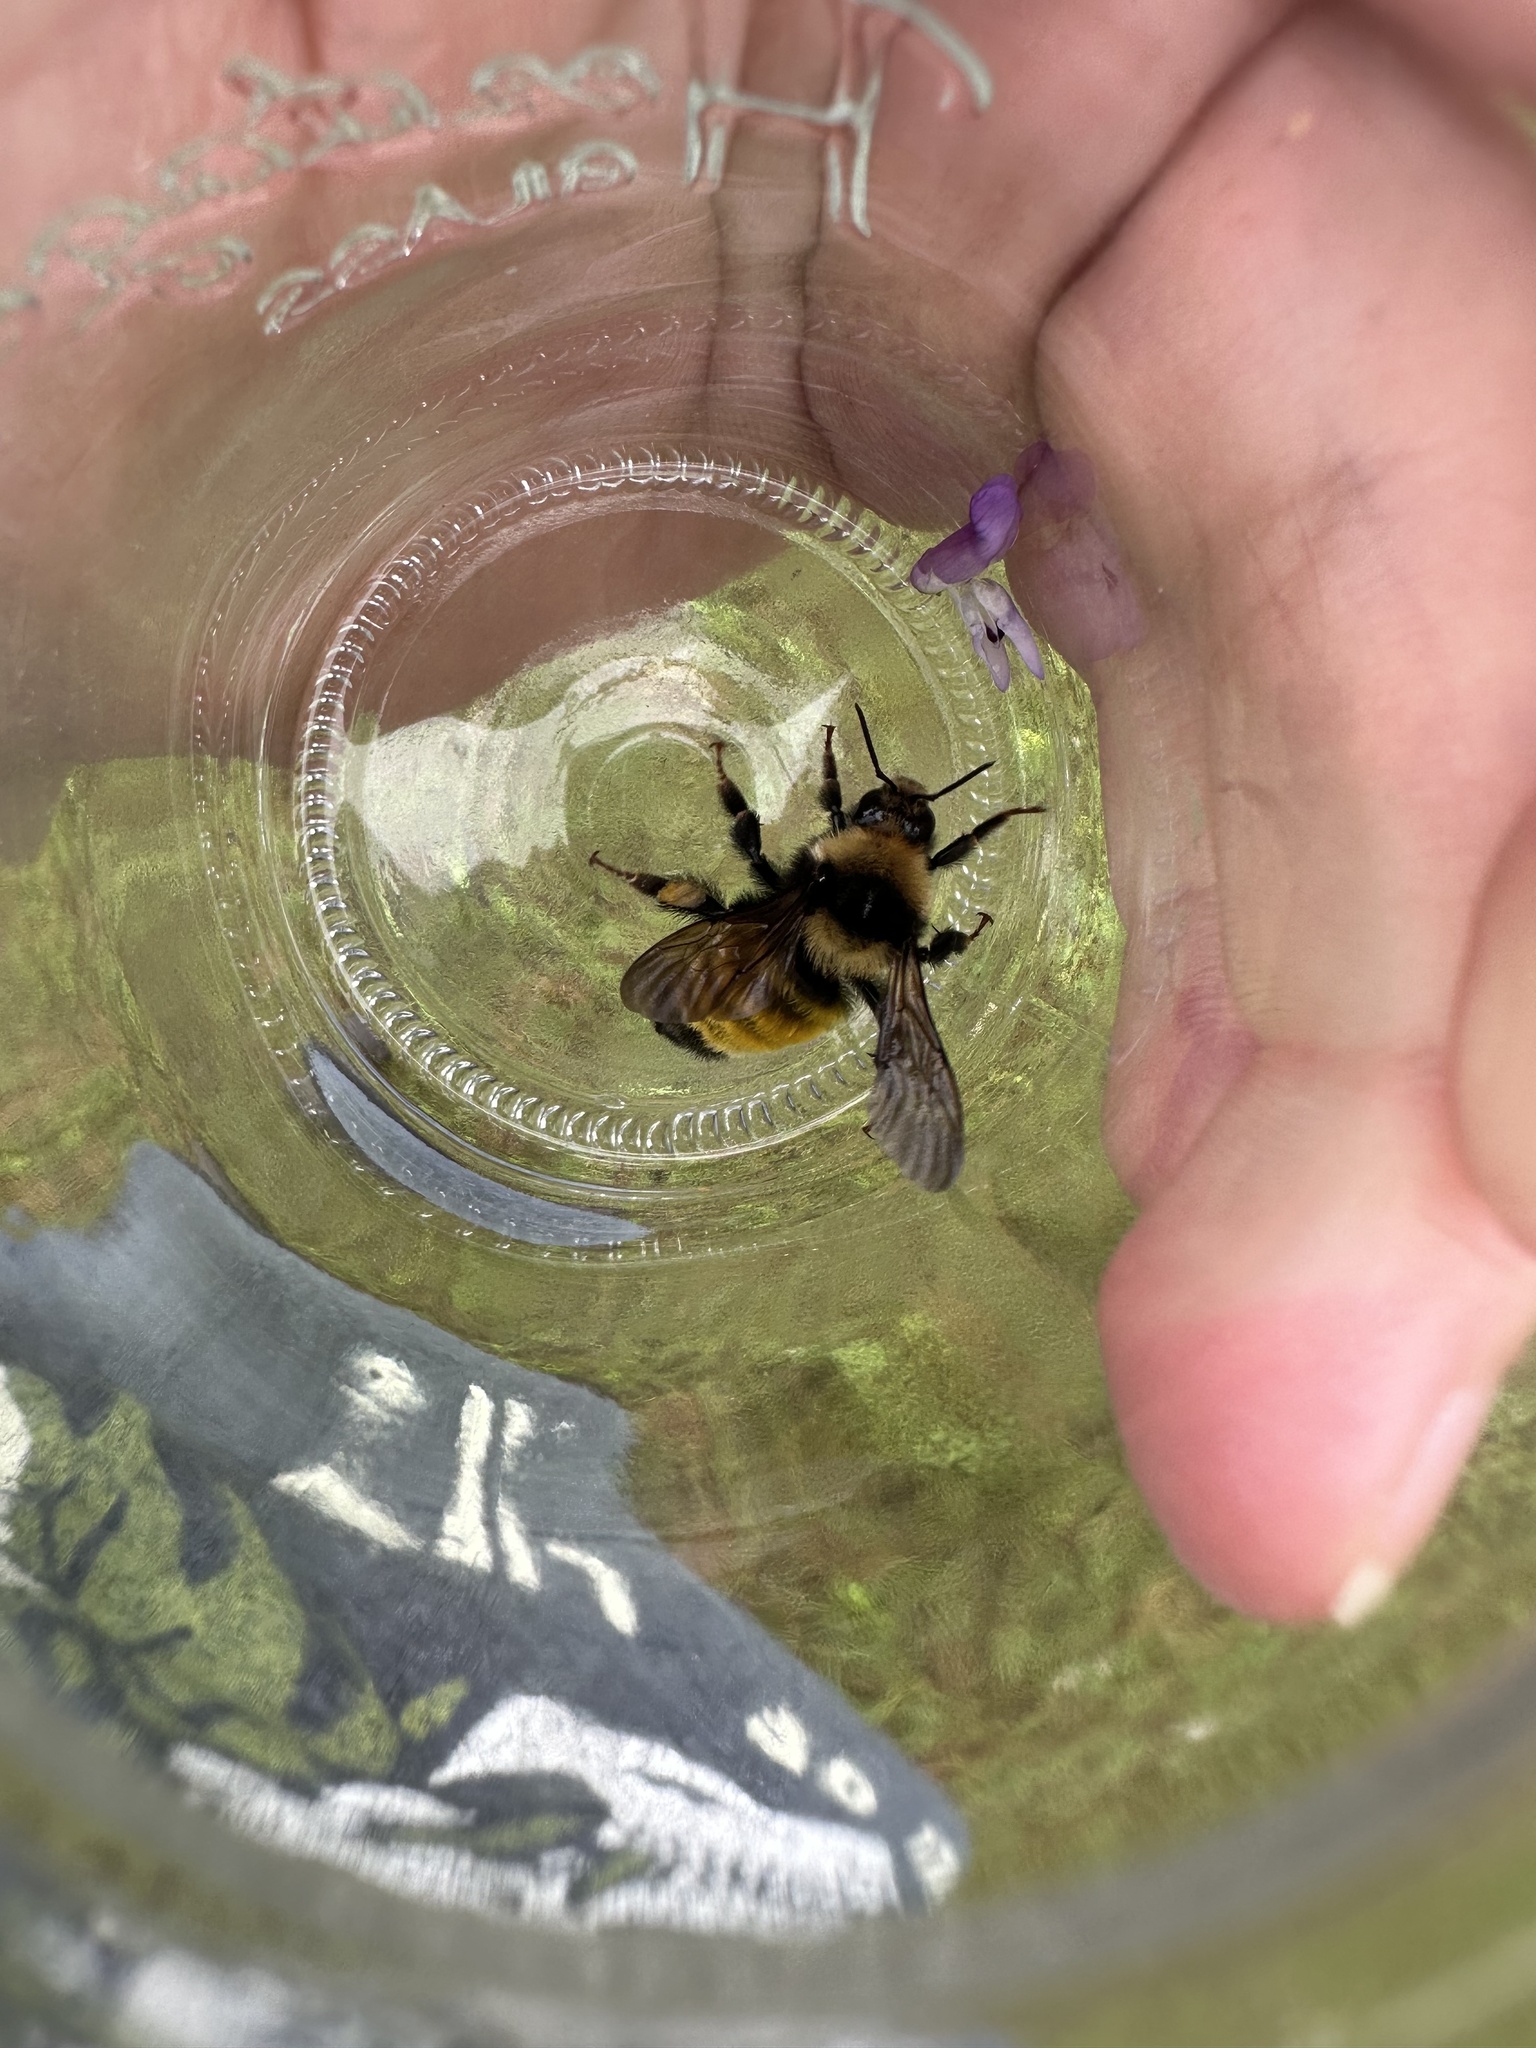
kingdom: Animalia
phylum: Arthropoda
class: Insecta
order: Hymenoptera
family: Apidae
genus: Bombus
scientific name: Bombus borealis
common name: Northern amber bumble bee
